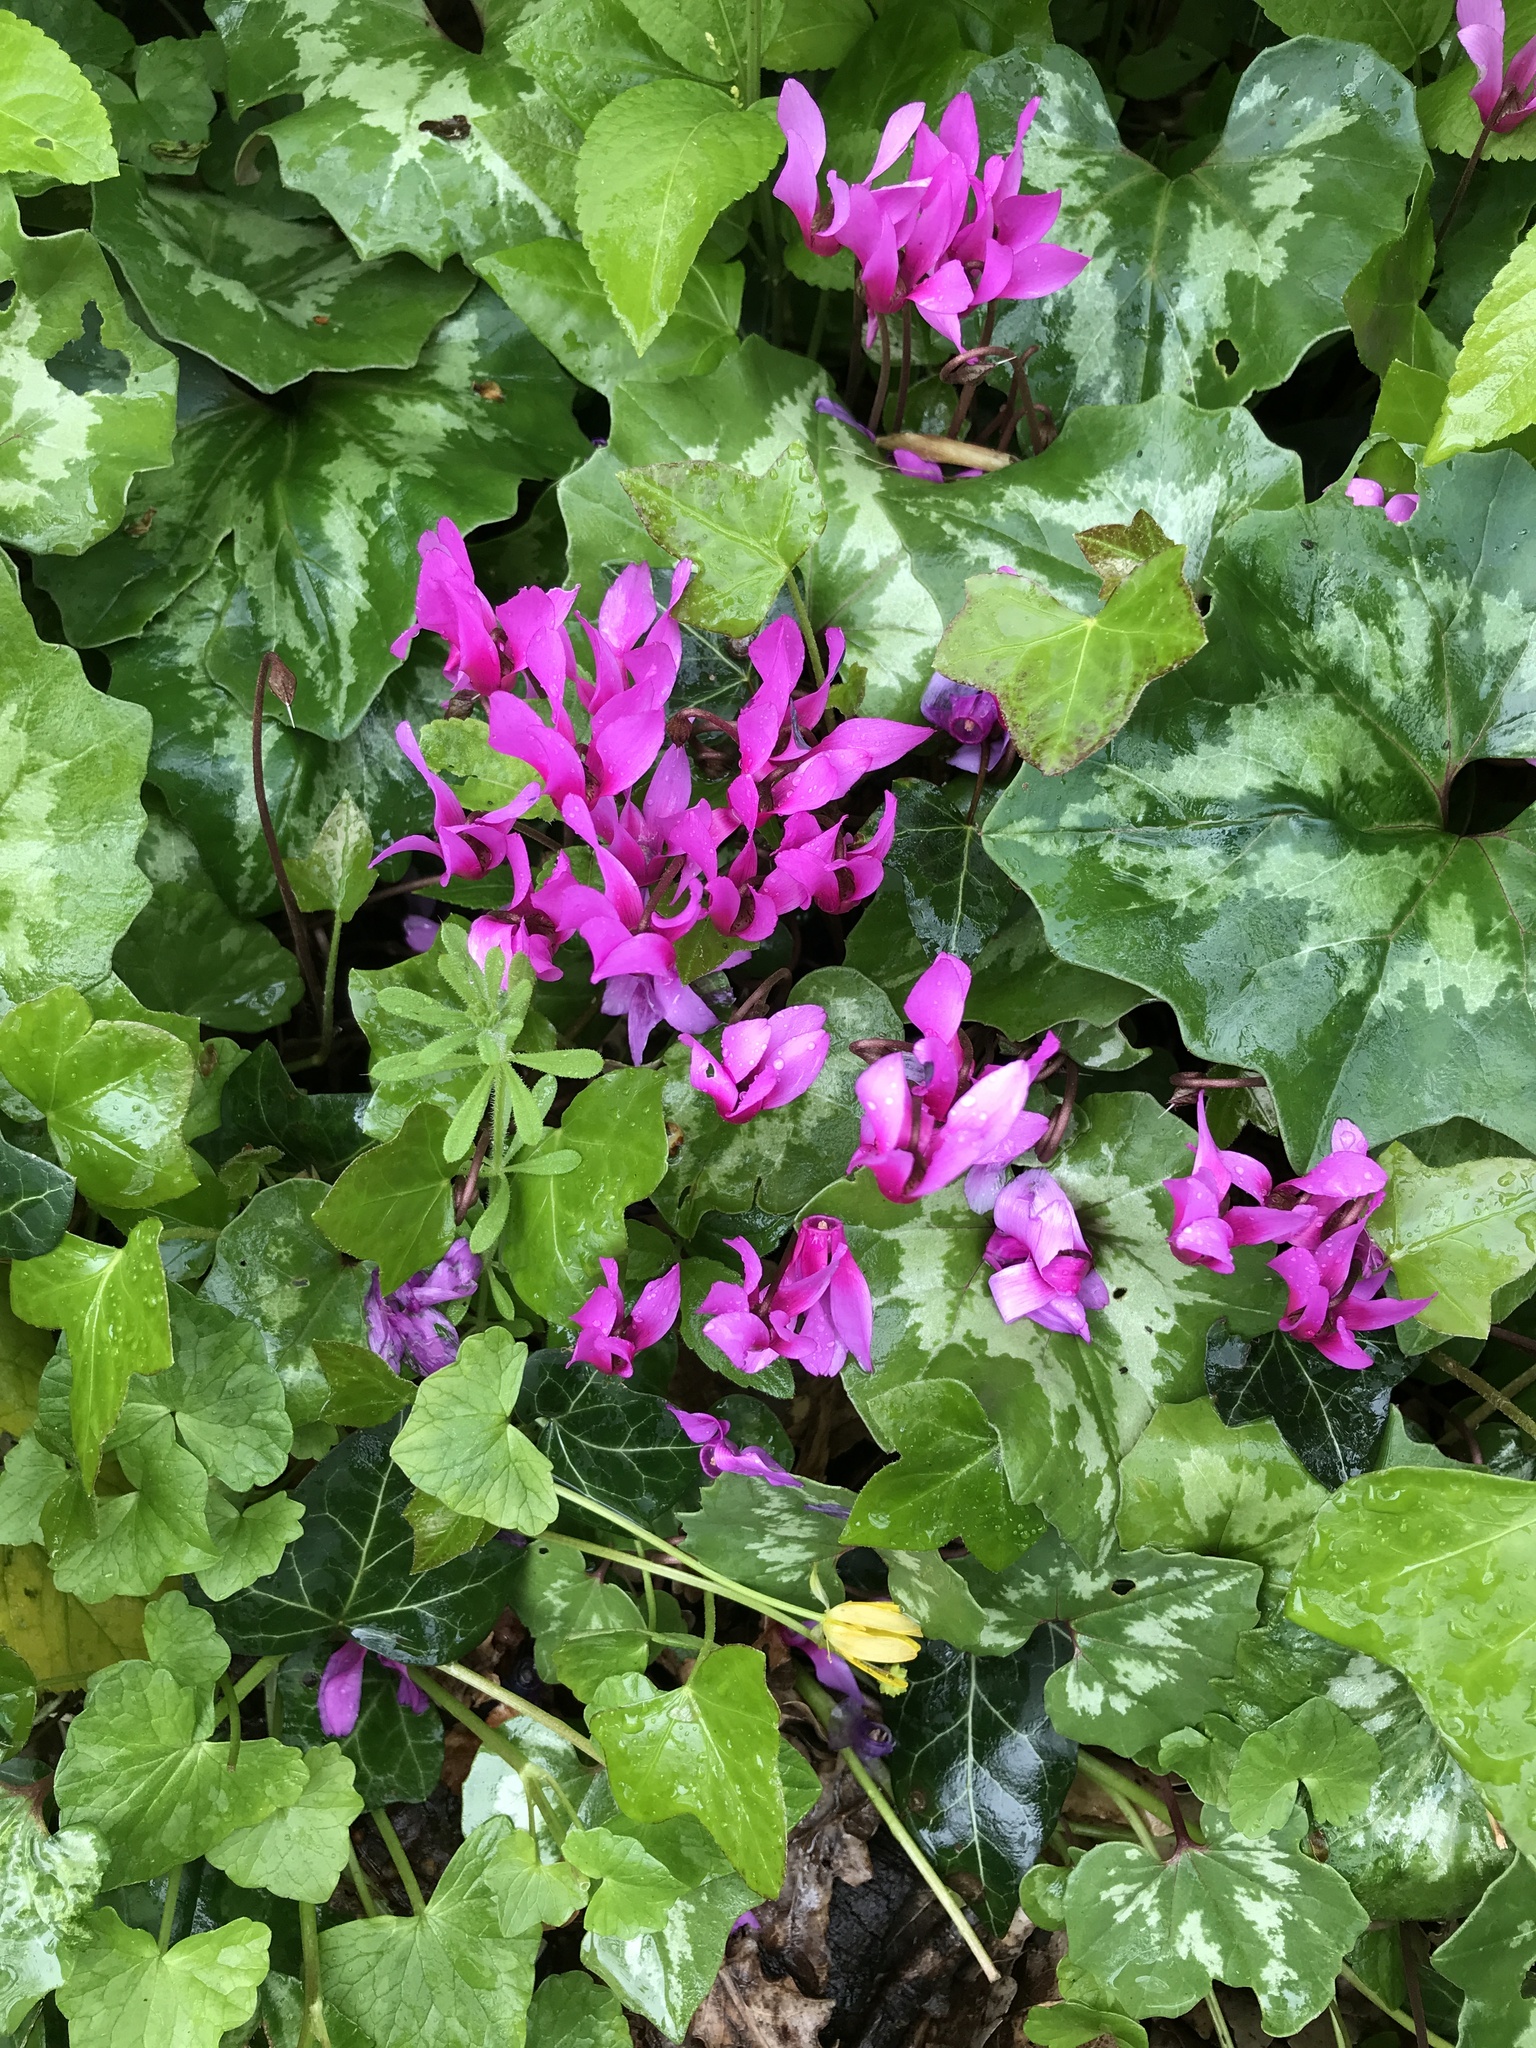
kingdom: Plantae
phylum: Tracheophyta
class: Magnoliopsida
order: Ericales
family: Primulaceae
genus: Cyclamen
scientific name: Cyclamen repandum
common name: Spring sowbread
